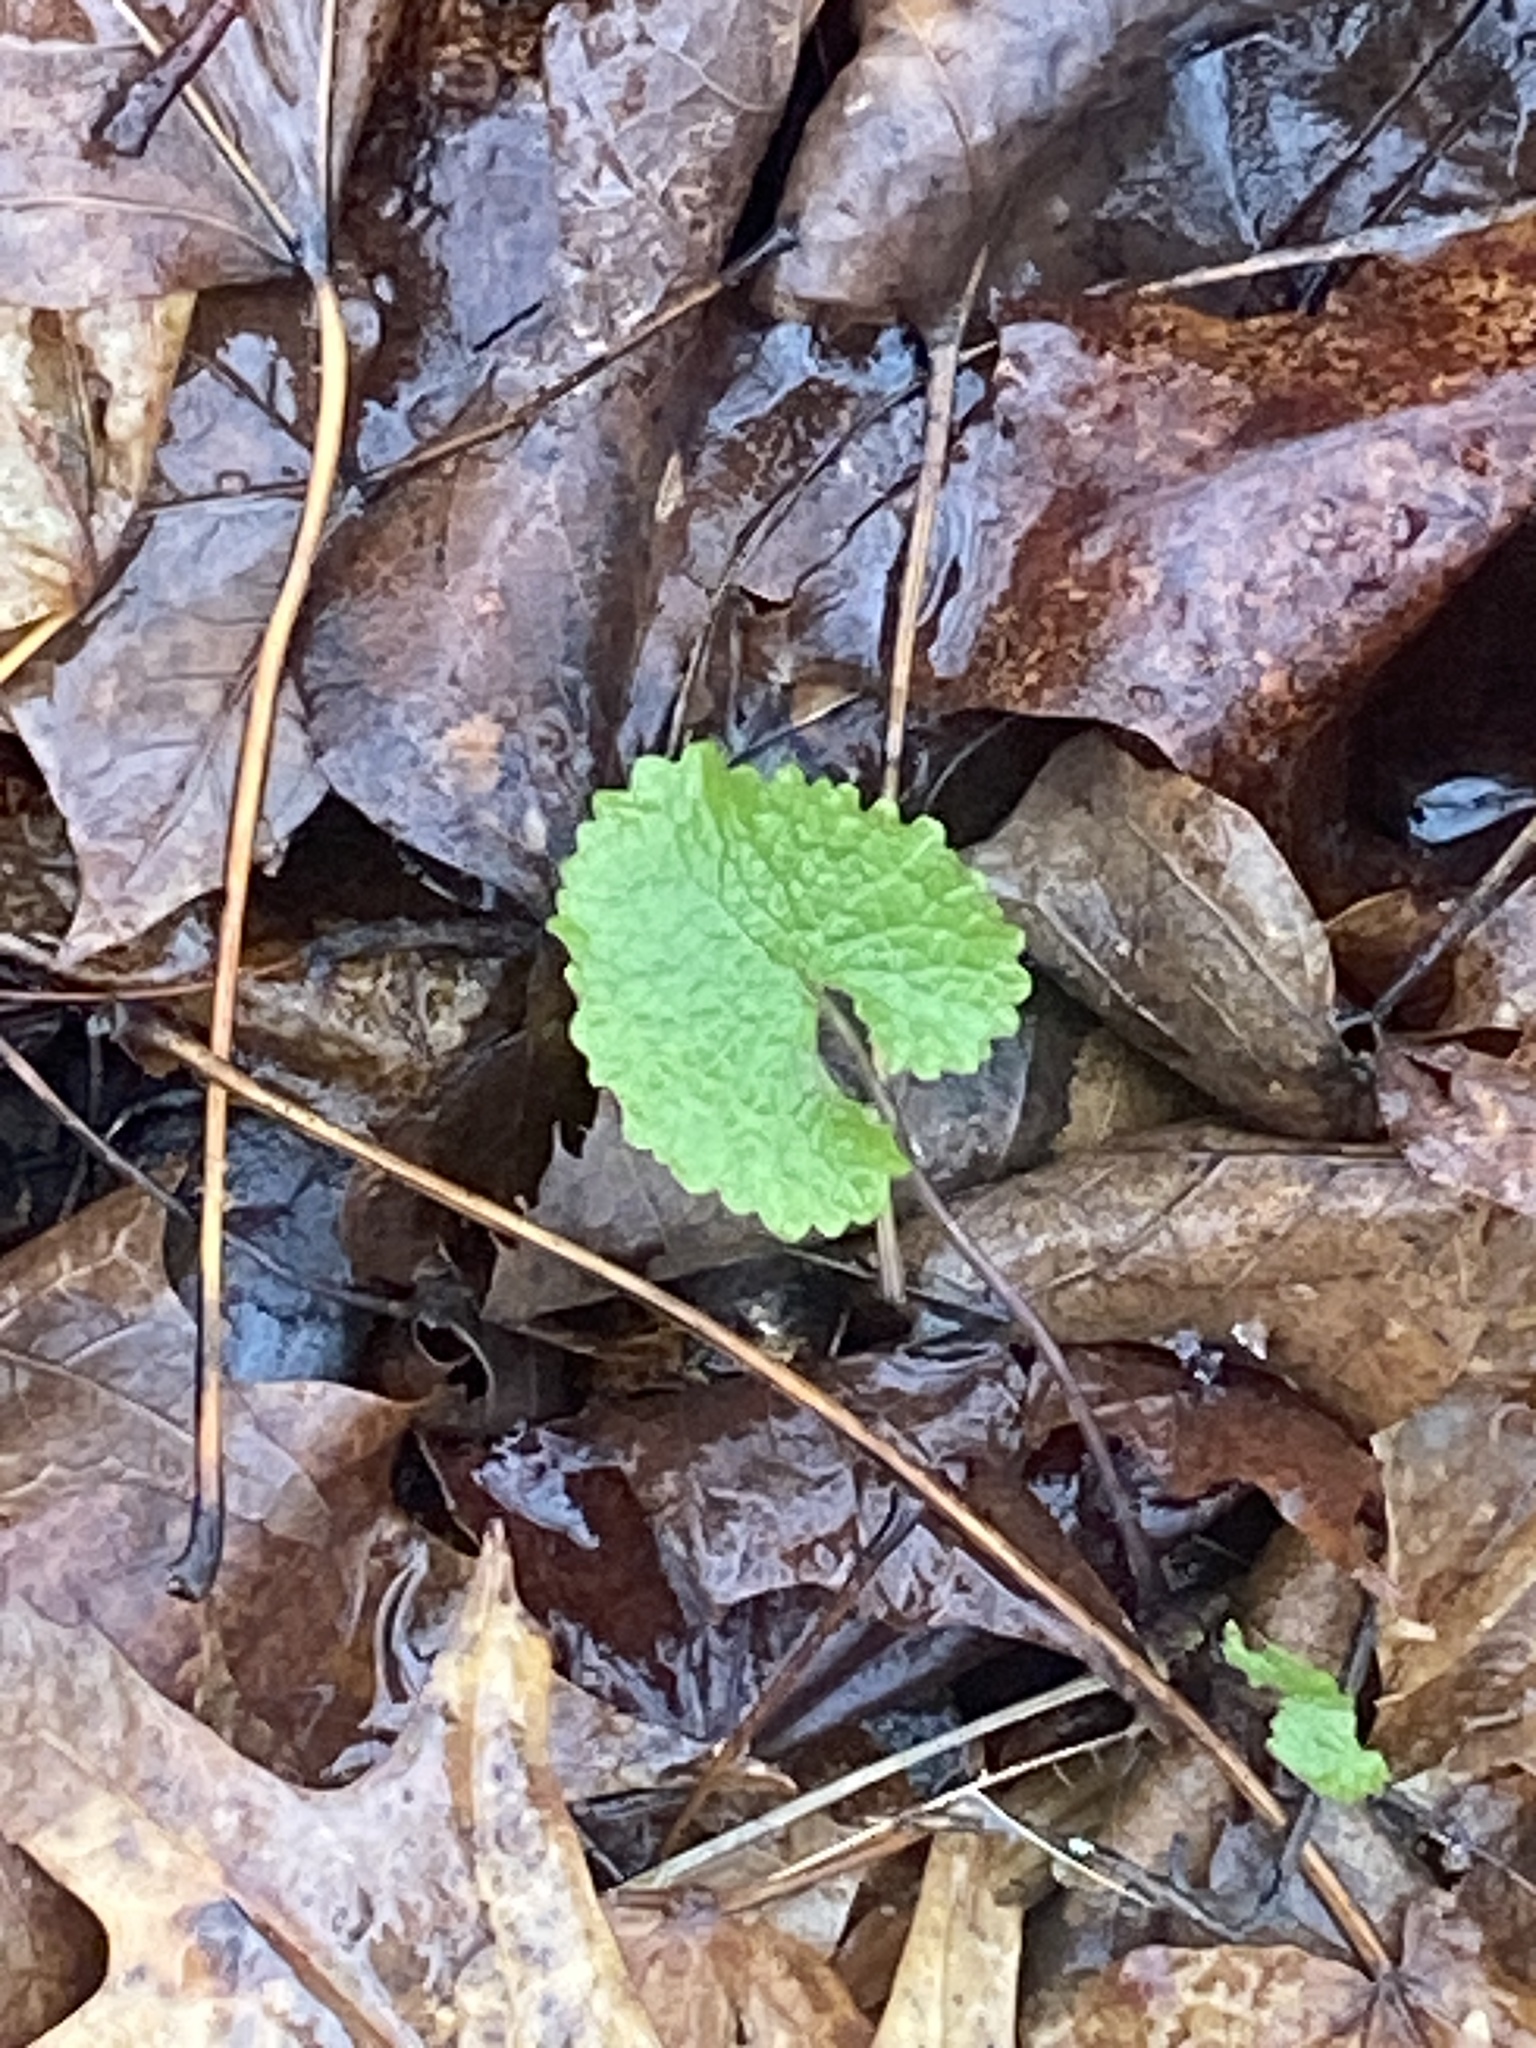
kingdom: Plantae
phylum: Tracheophyta
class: Magnoliopsida
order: Brassicales
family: Brassicaceae
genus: Alliaria
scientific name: Alliaria petiolata
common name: Garlic mustard
